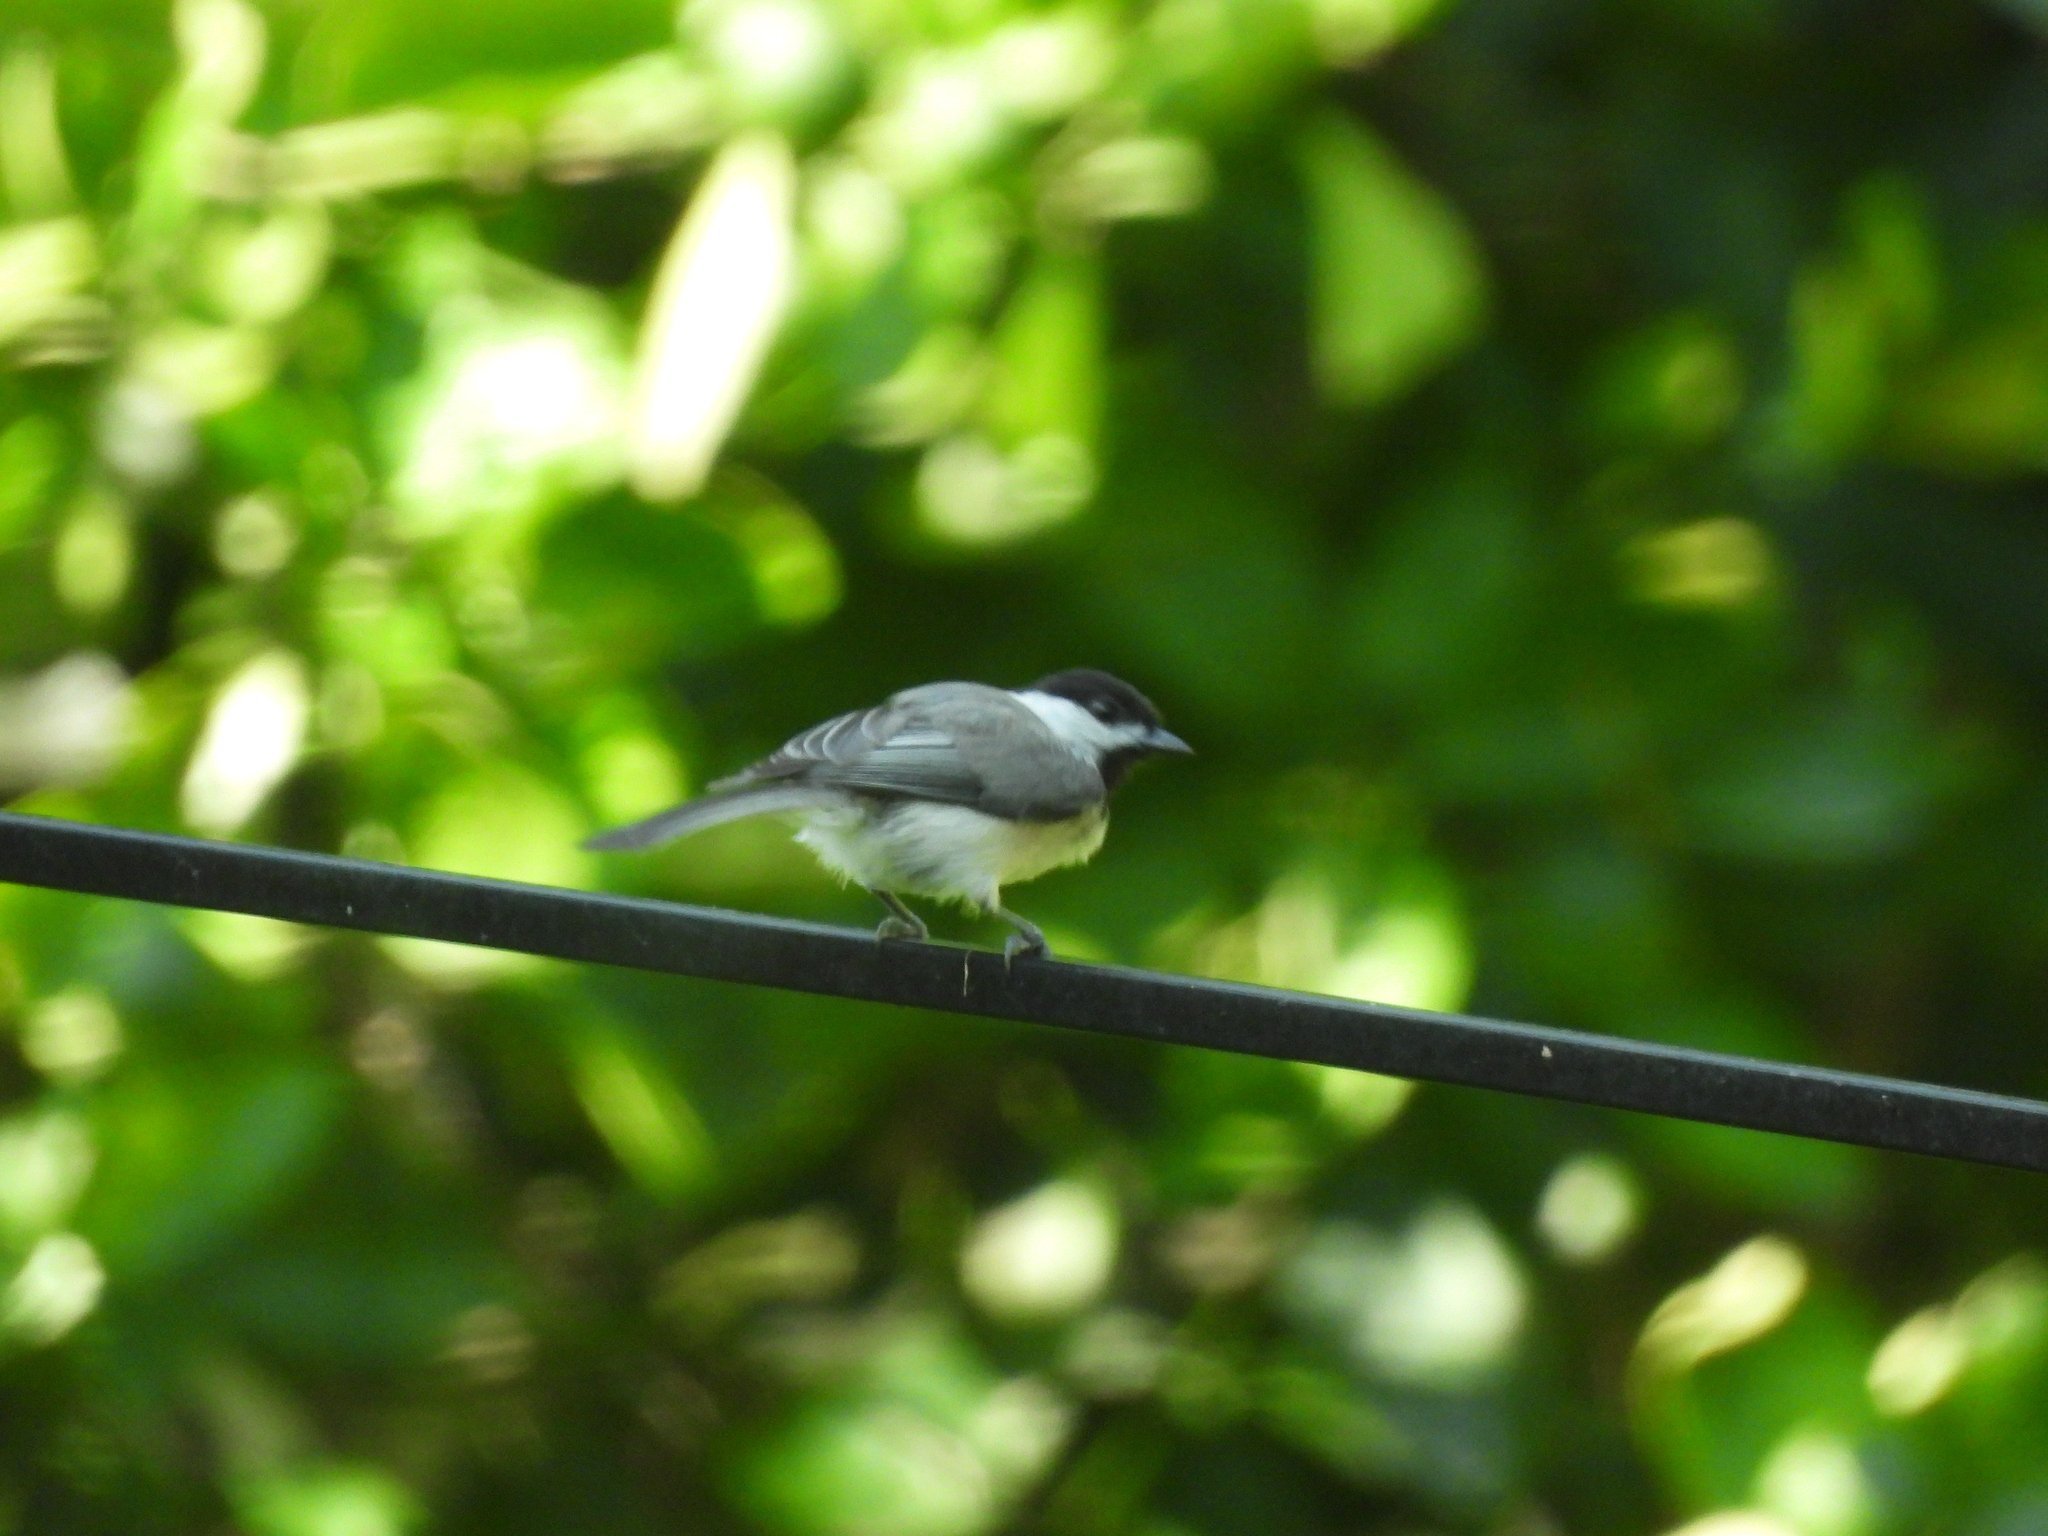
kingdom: Animalia
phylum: Chordata
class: Aves
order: Passeriformes
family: Paridae
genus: Poecile
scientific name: Poecile carolinensis
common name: Carolina chickadee
